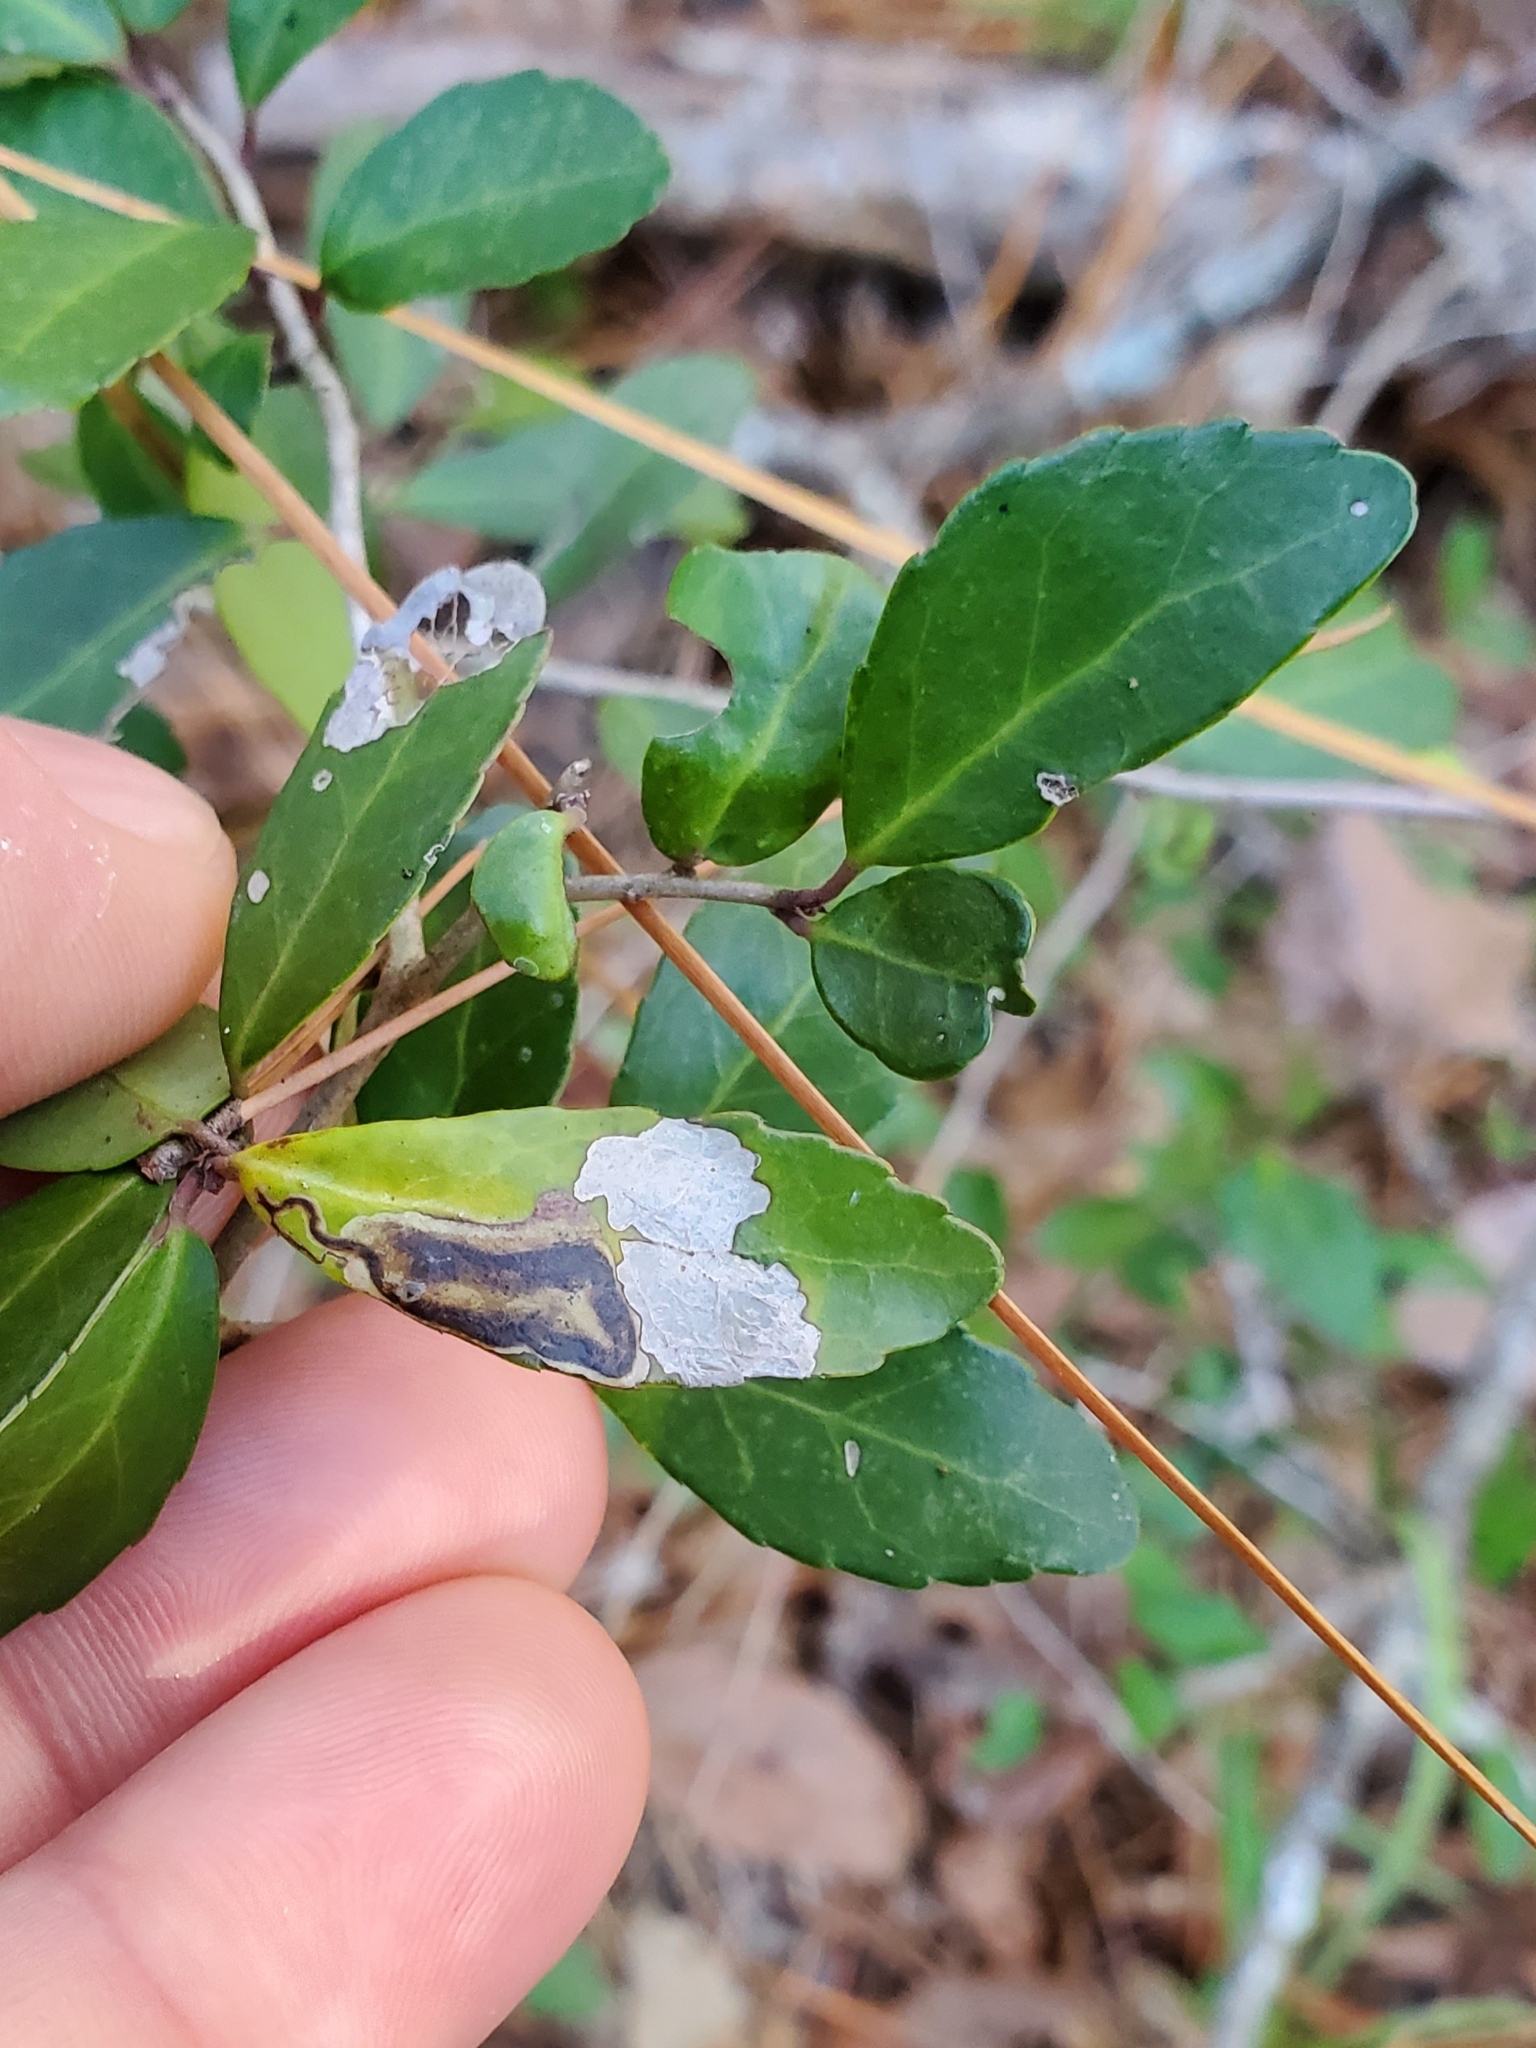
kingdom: Animalia
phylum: Arthropoda
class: Insecta
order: Diptera
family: Agromyzidae
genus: Phytomyza
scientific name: Phytomyza vomitoriae
